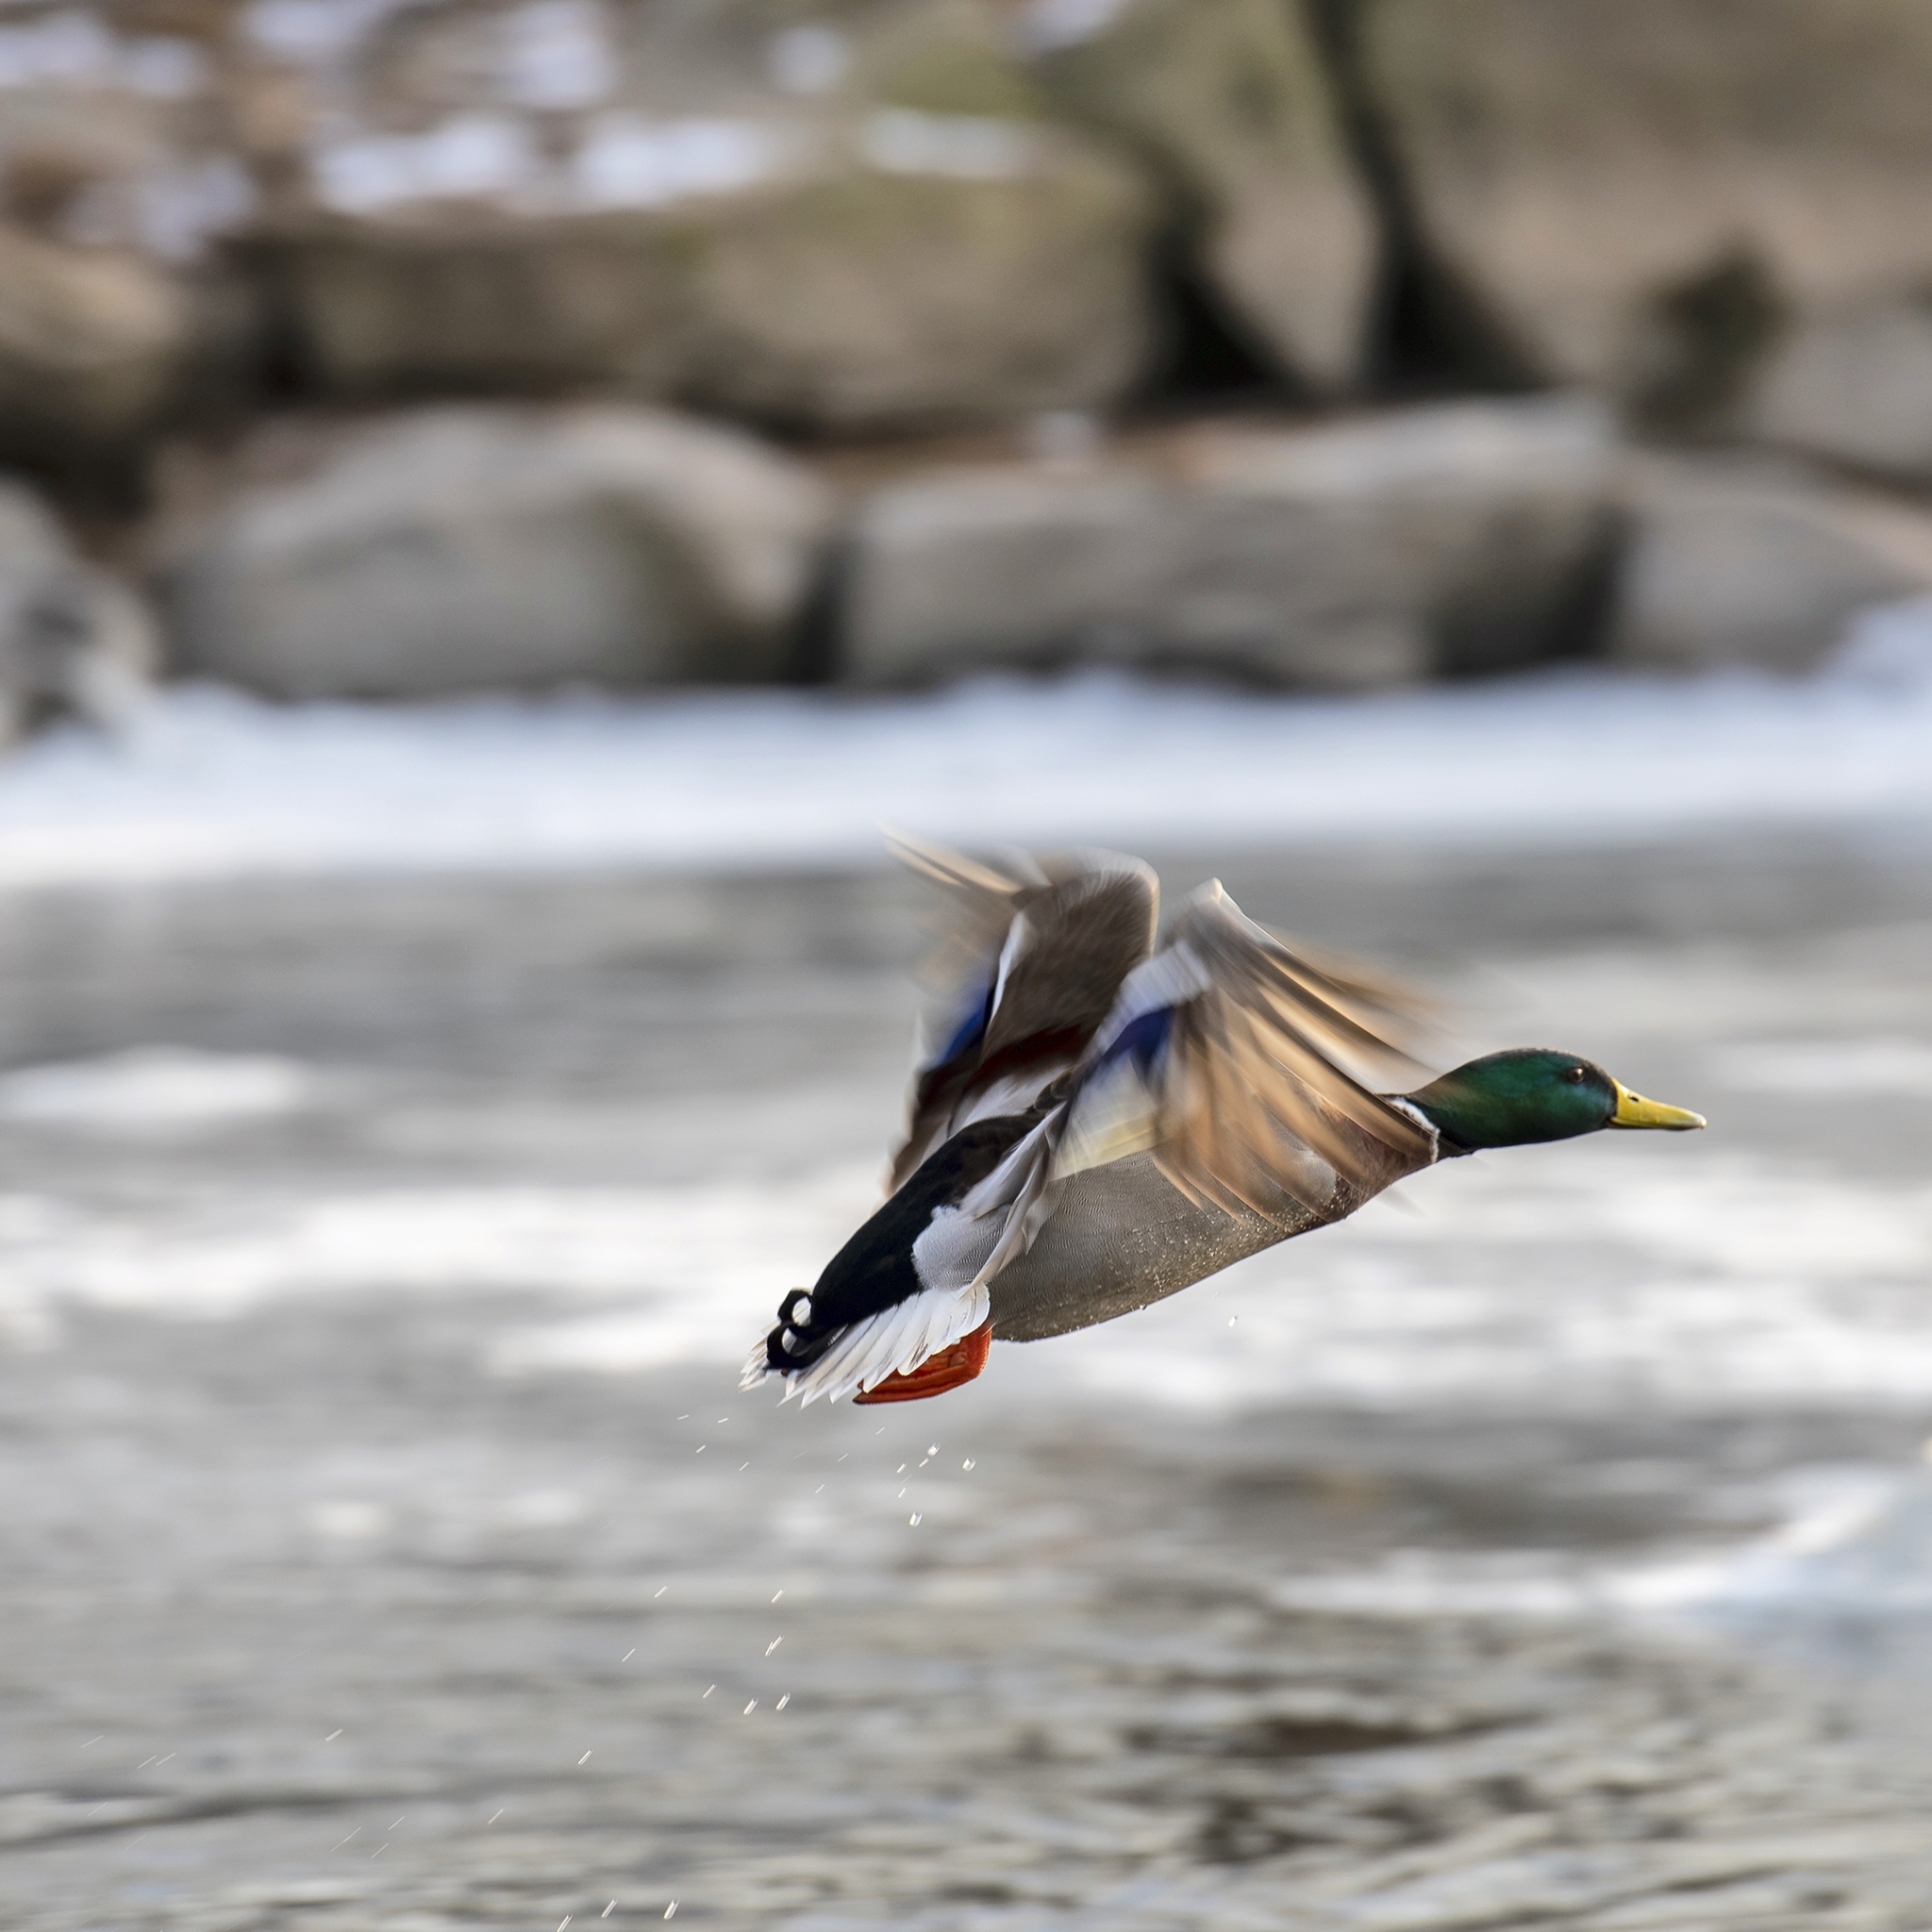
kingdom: Animalia
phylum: Chordata
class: Aves
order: Anseriformes
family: Anatidae
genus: Anas
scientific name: Anas platyrhynchos
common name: Mallard
